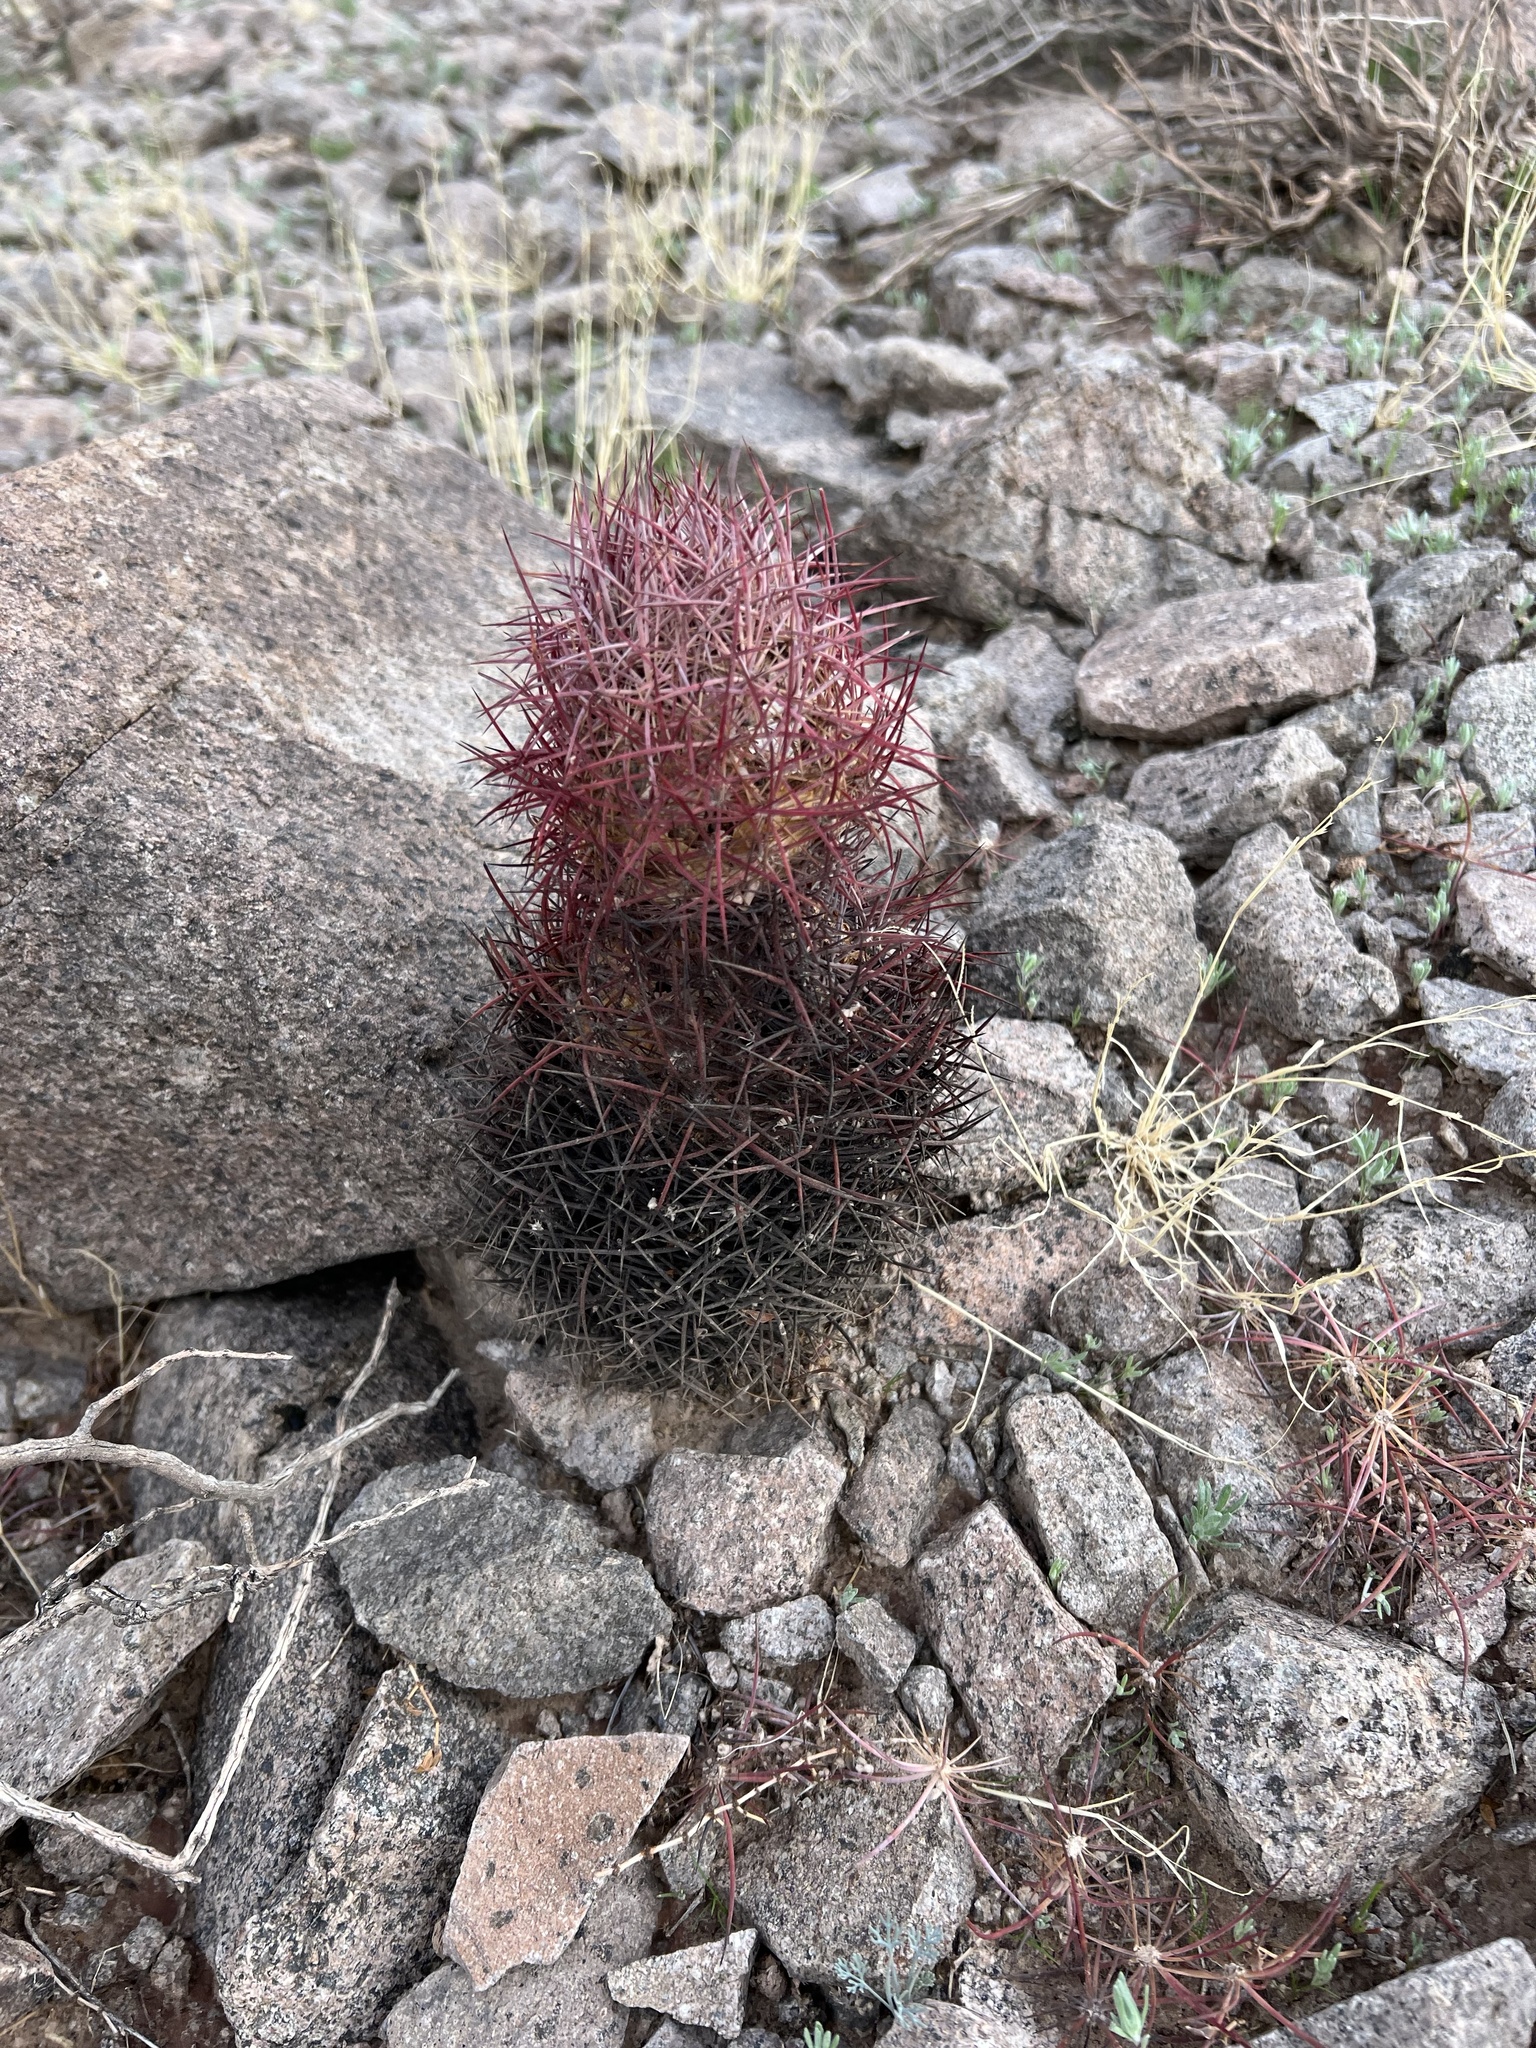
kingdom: Plantae
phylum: Tracheophyta
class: Magnoliopsida
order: Caryophyllales
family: Cactaceae
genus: Sclerocactus
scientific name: Sclerocactus johnsonii
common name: Eight-spine fishhook cactus
